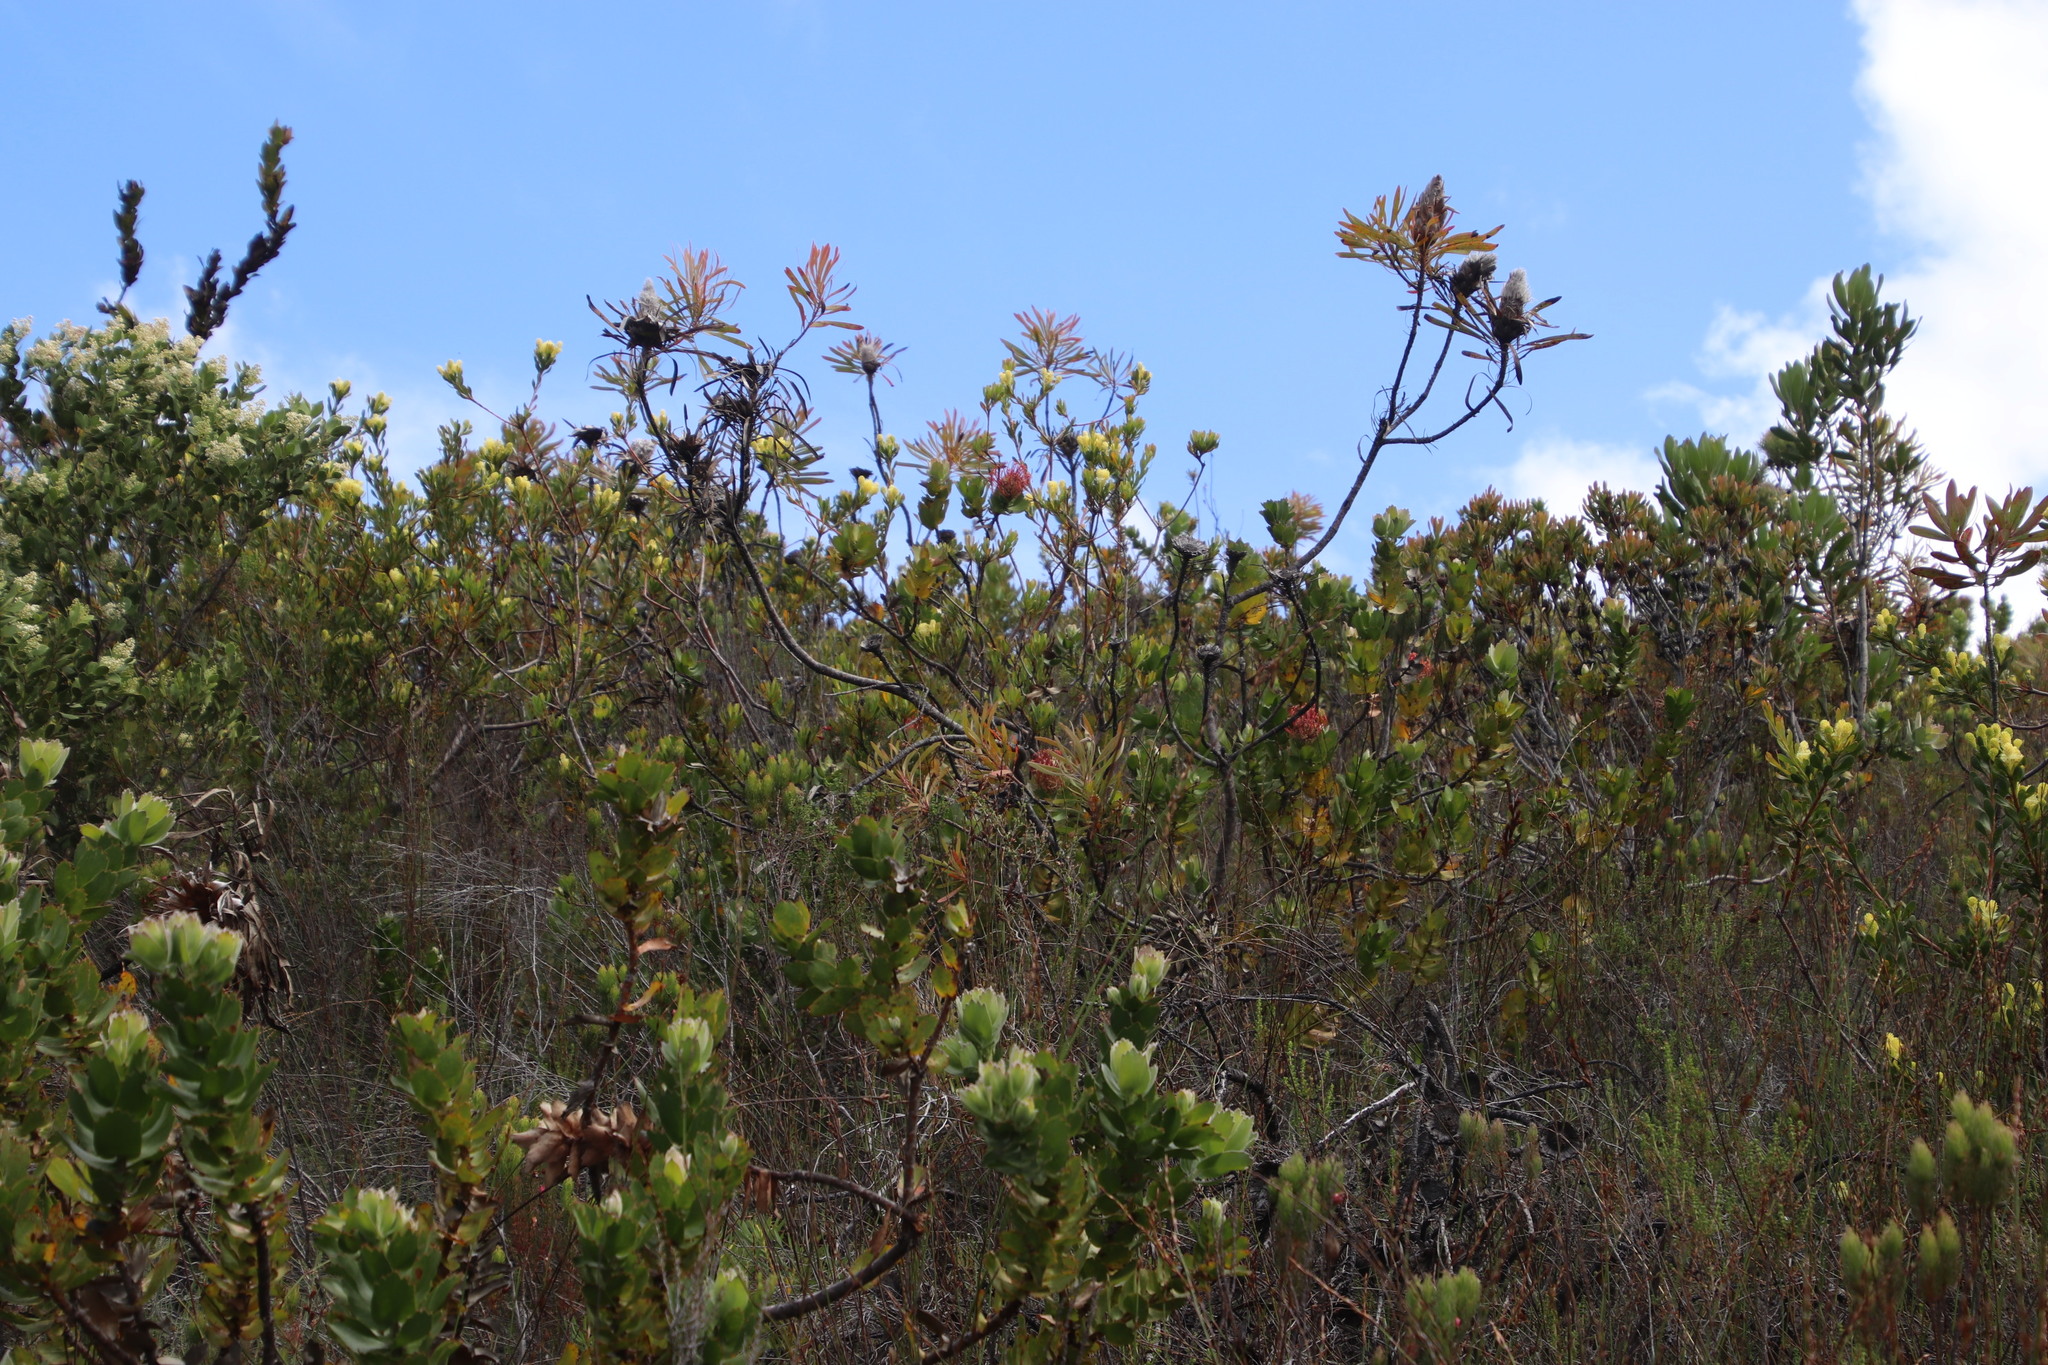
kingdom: Plantae
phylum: Tracheophyta
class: Magnoliopsida
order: Proteales
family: Proteaceae
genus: Protea
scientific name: Protea longifolia
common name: Long-leaf sugarbush
